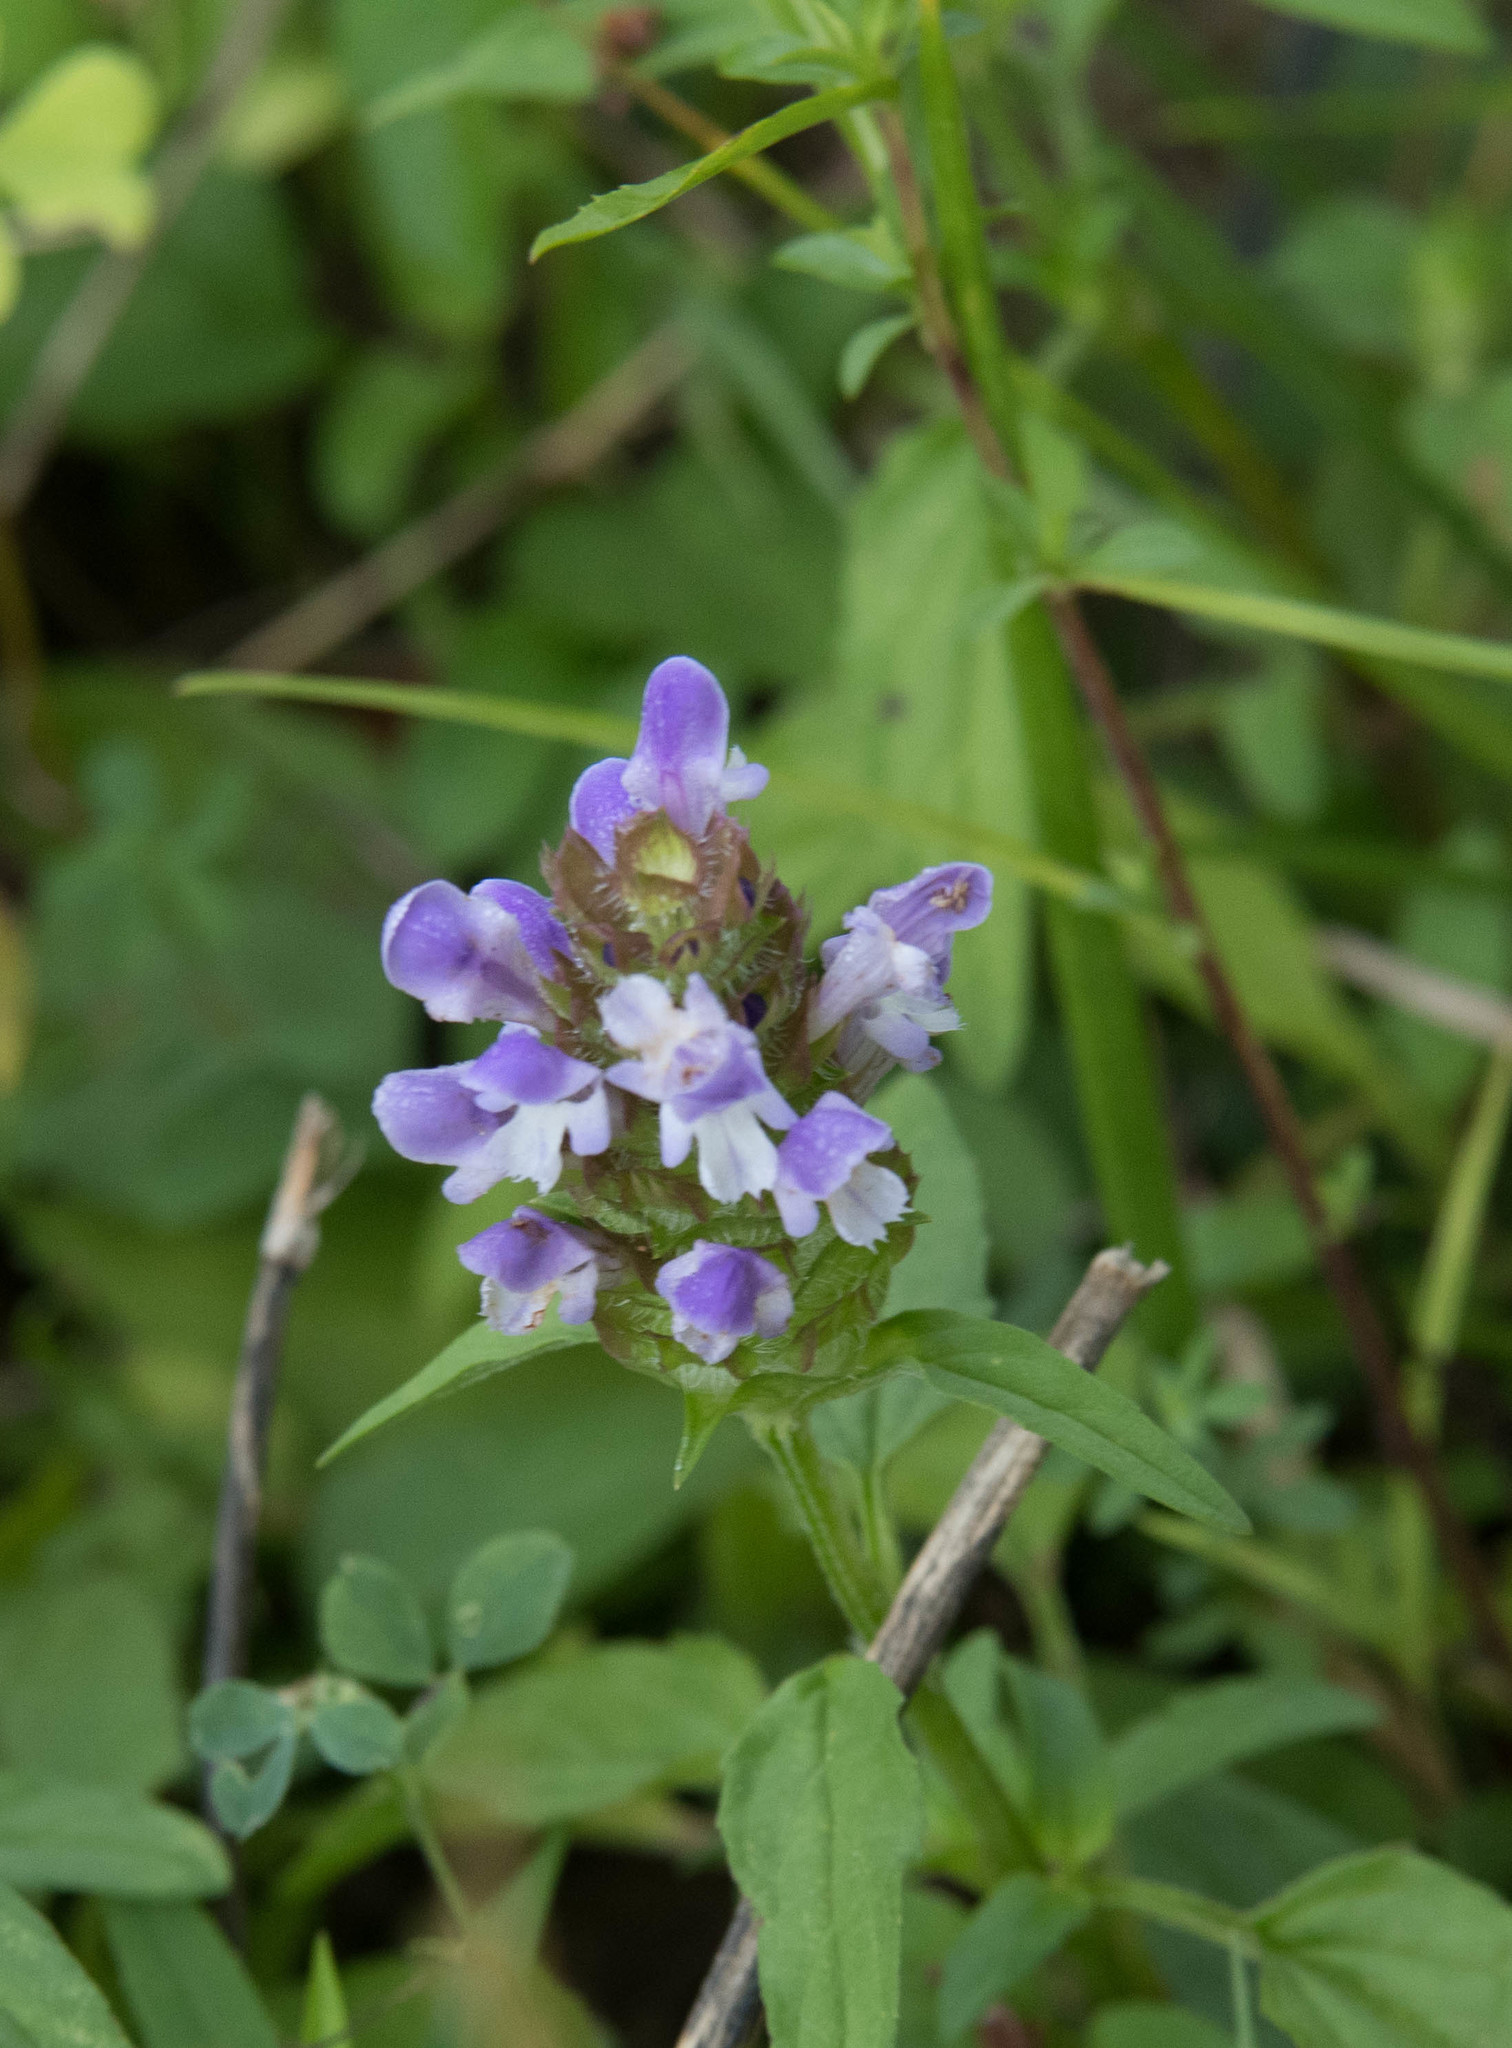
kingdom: Plantae
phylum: Tracheophyta
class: Magnoliopsida
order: Lamiales
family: Lamiaceae
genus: Prunella
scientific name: Prunella vulgaris
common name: Heal-all
